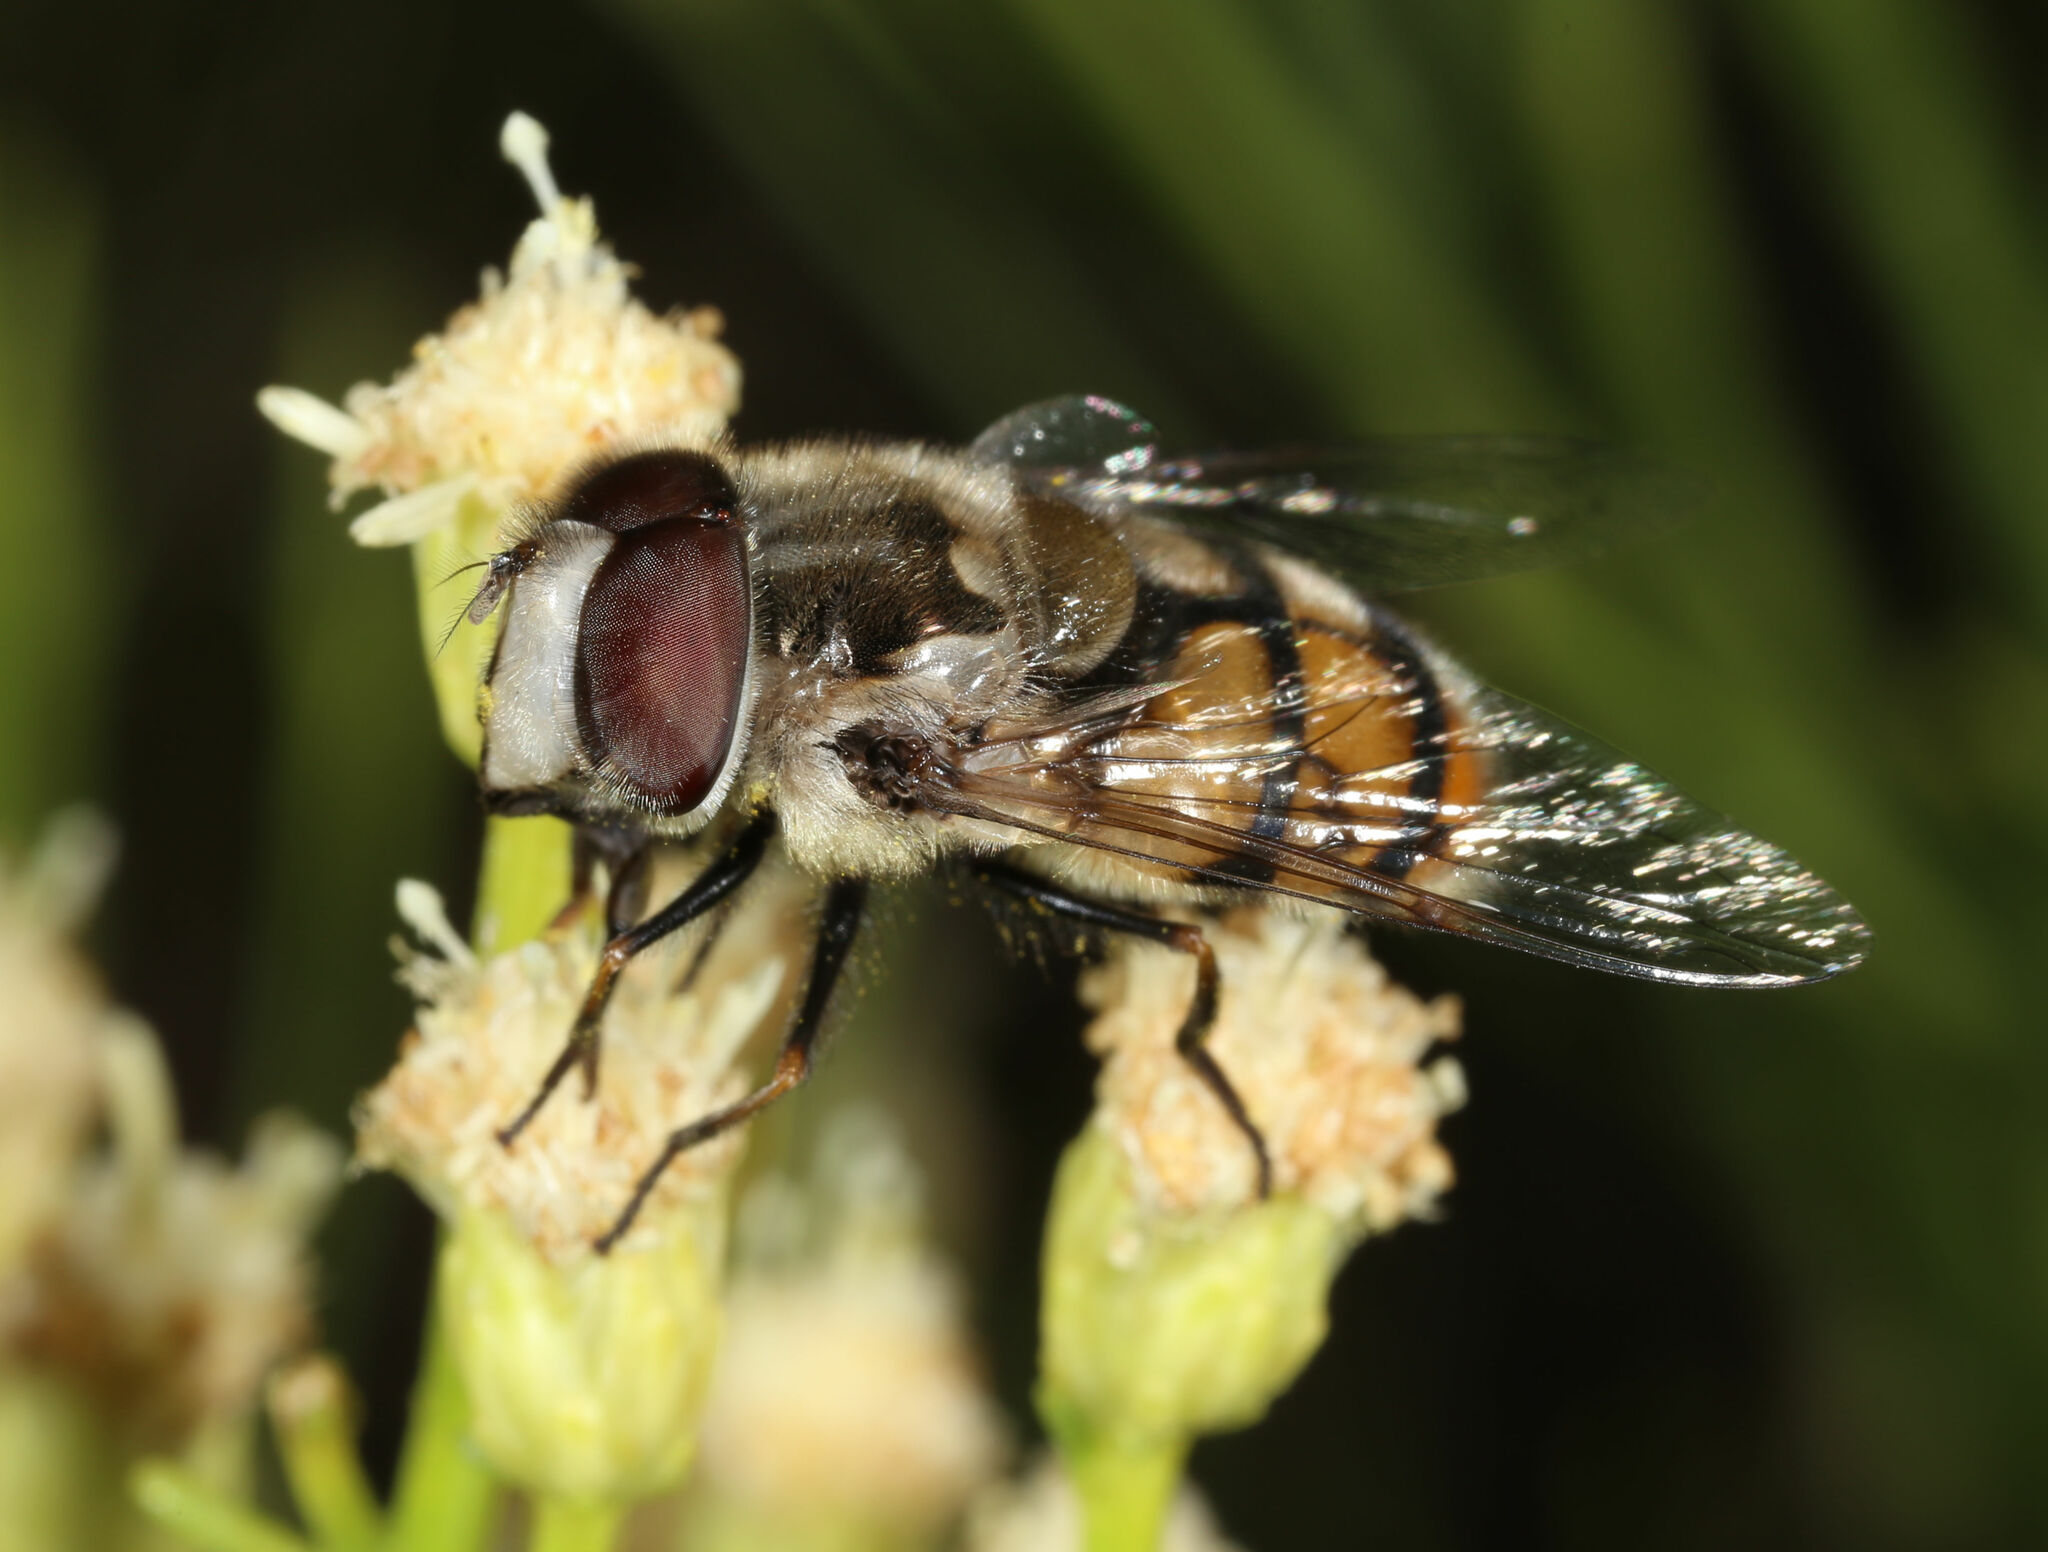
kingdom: Animalia
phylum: Arthropoda
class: Insecta
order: Diptera
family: Syrphidae
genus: Copestylum
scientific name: Copestylum avidum
